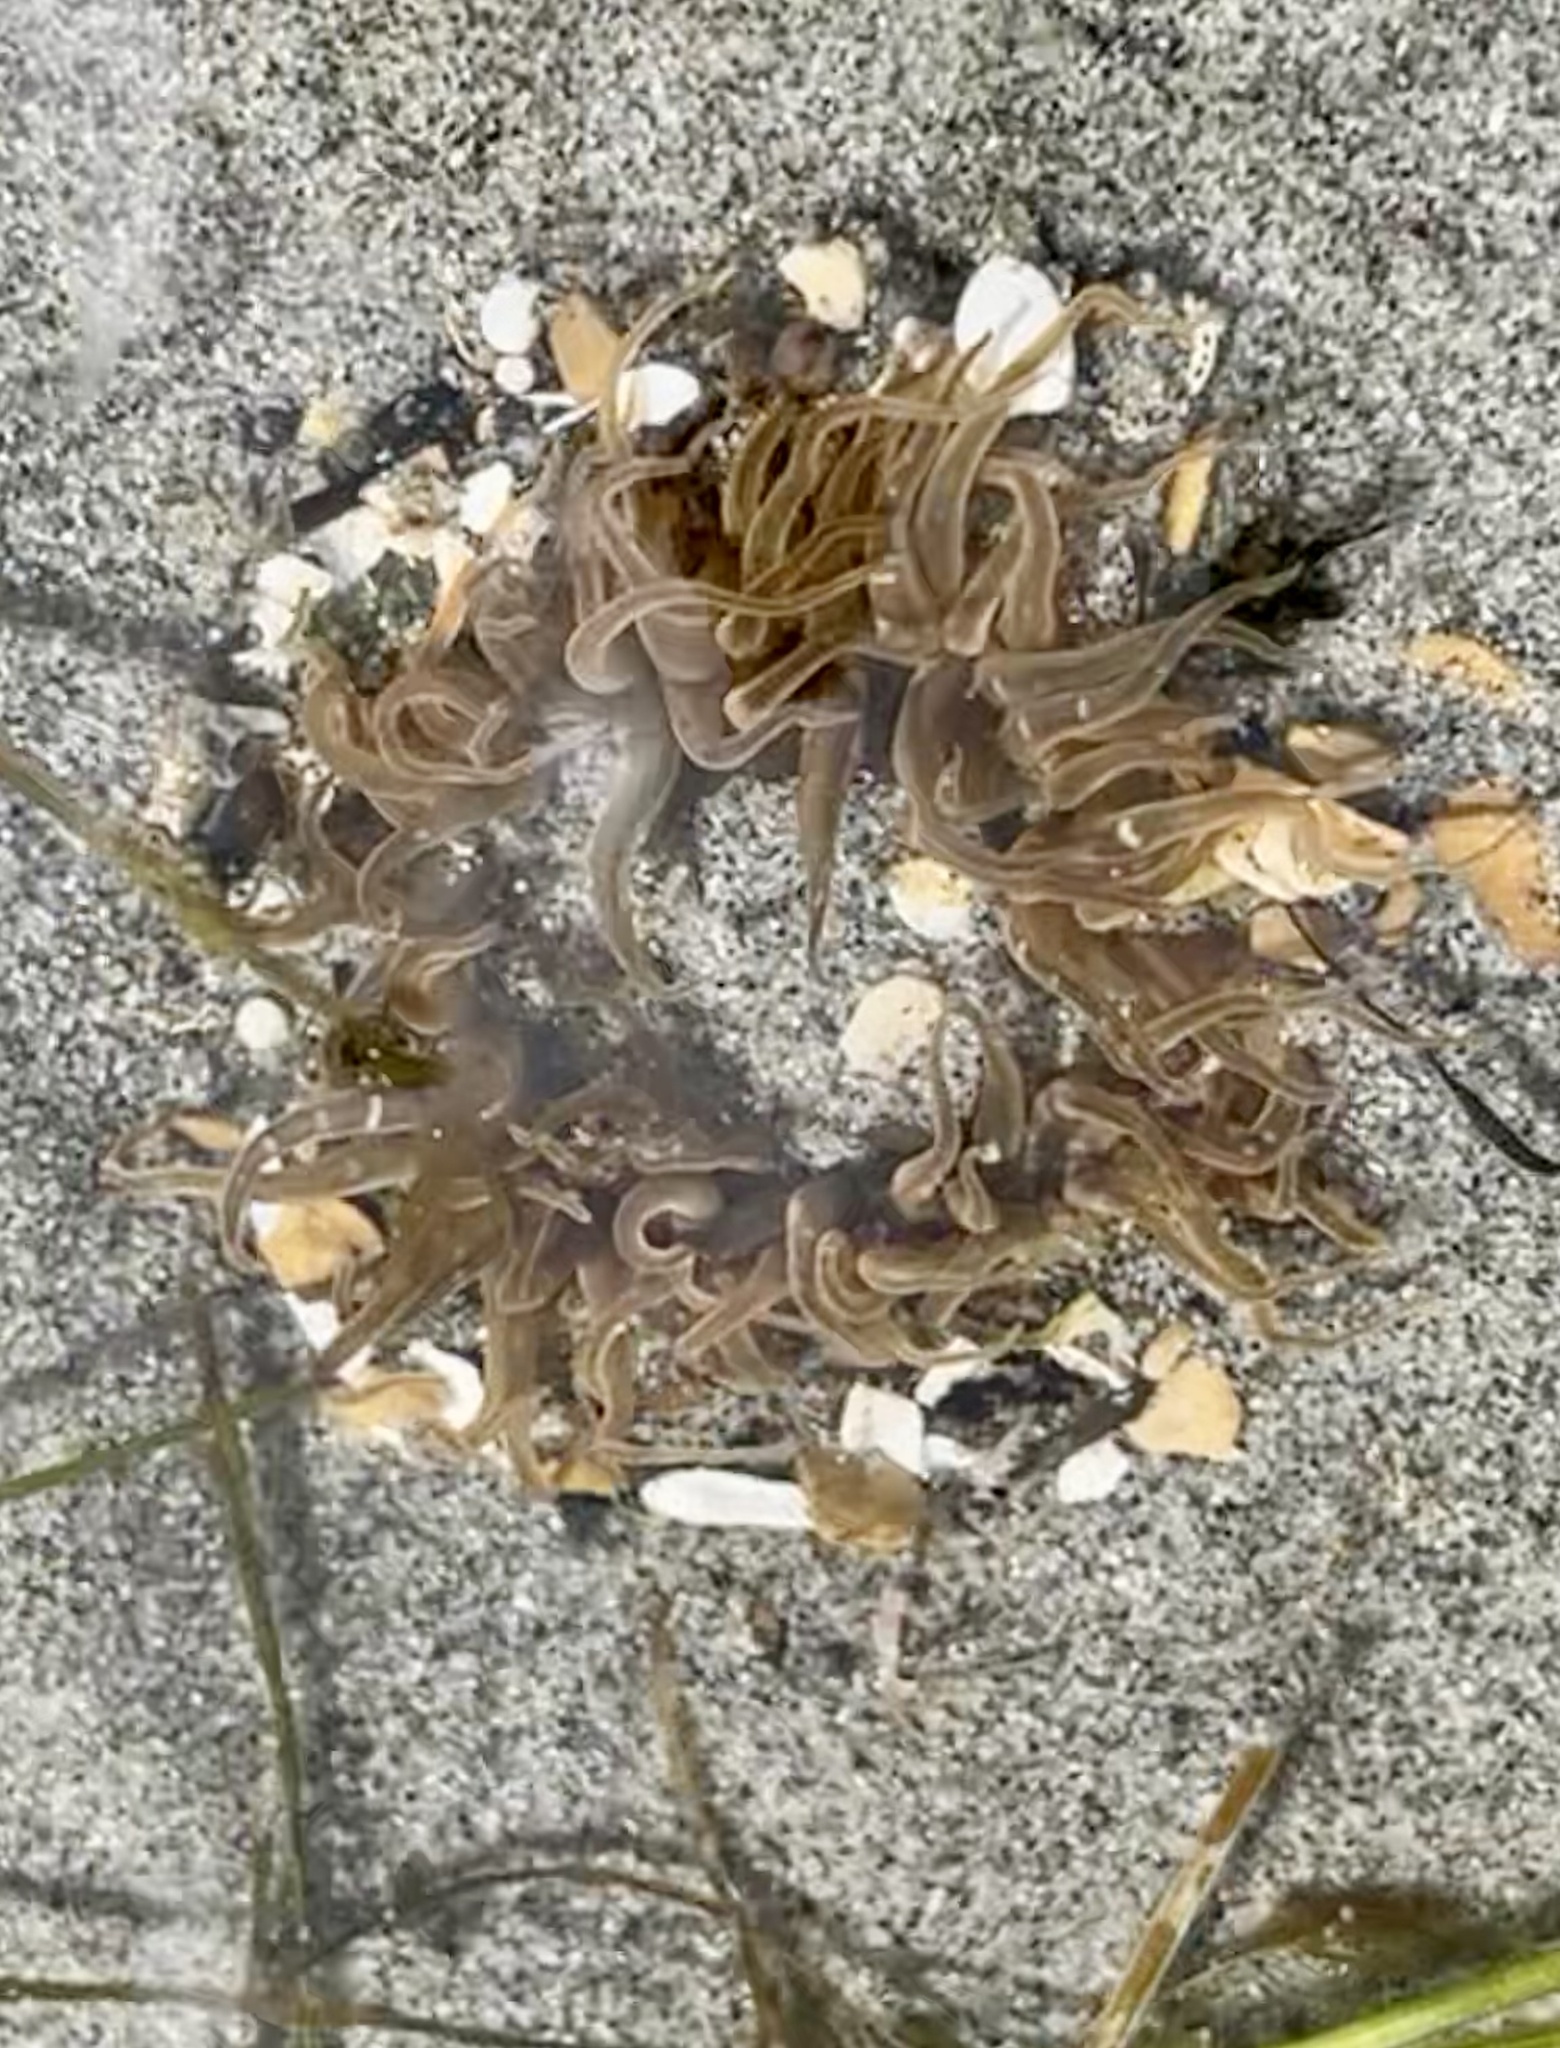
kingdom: Animalia
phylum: Cnidaria
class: Anthozoa
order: Actiniaria
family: Actiniidae
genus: Anthopleura
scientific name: Anthopleura artemisia
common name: Buried sea anemone
